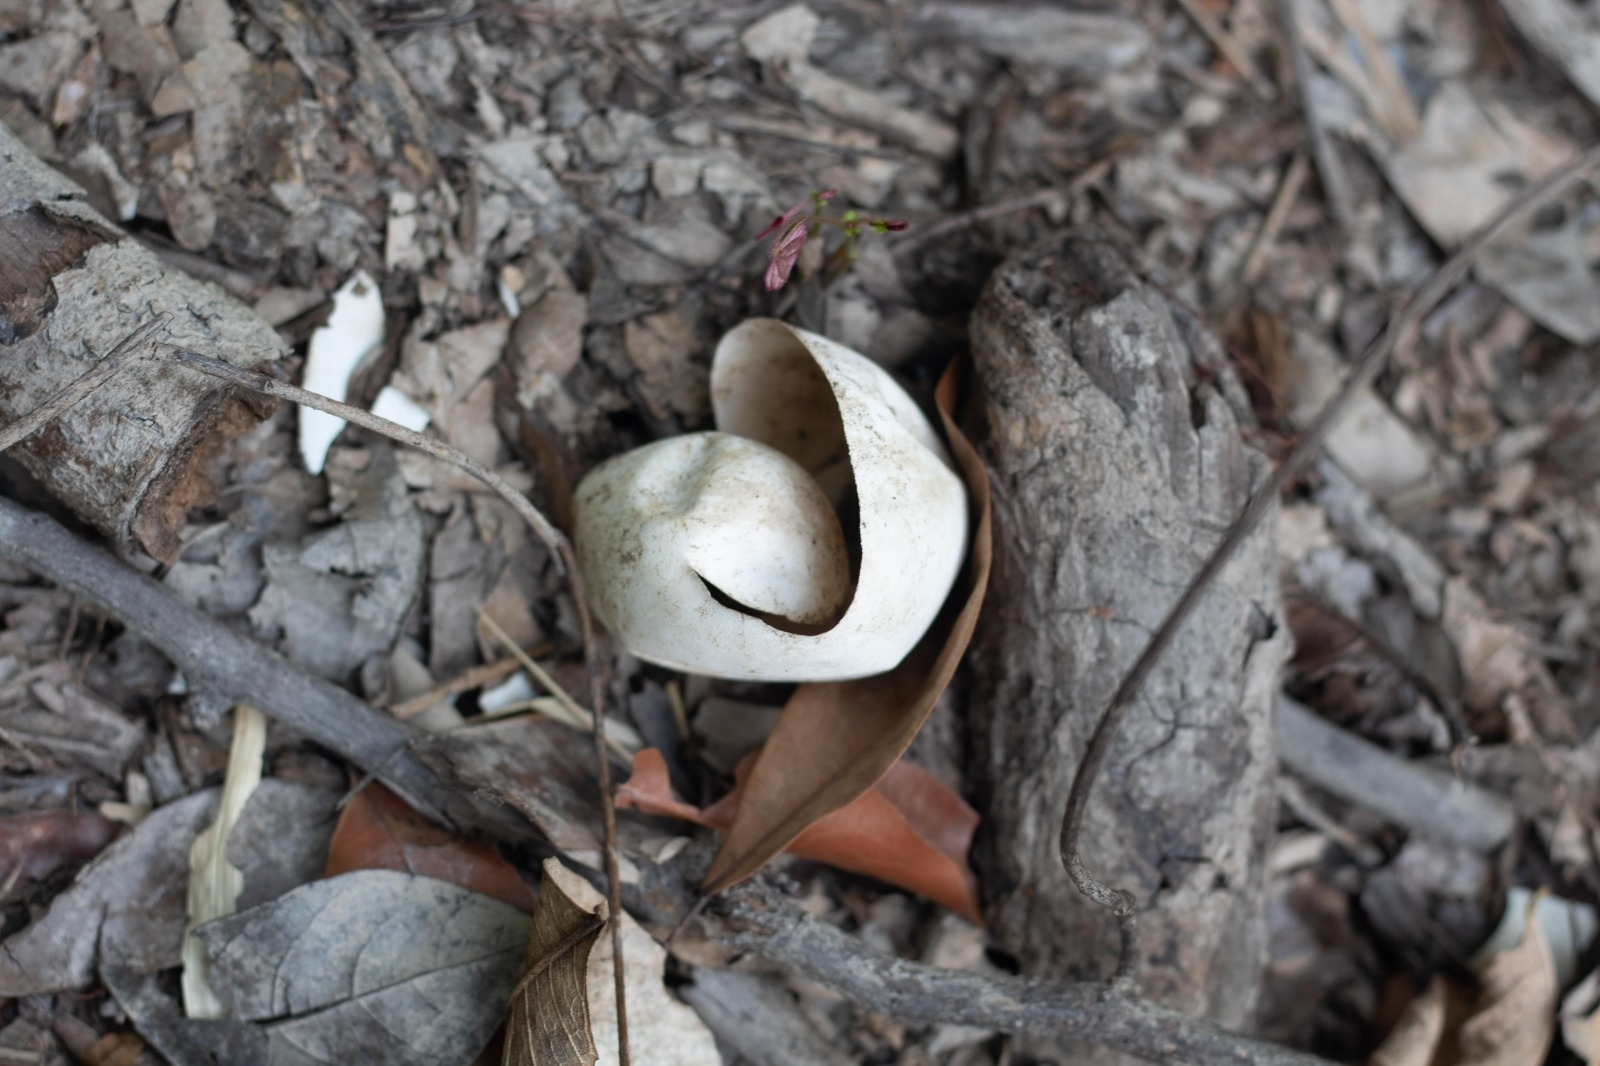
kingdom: Animalia
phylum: Chordata
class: Crocodylia
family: Alligatoridae
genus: Melanosuchus
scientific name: Melanosuchus niger
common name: Black caiman
